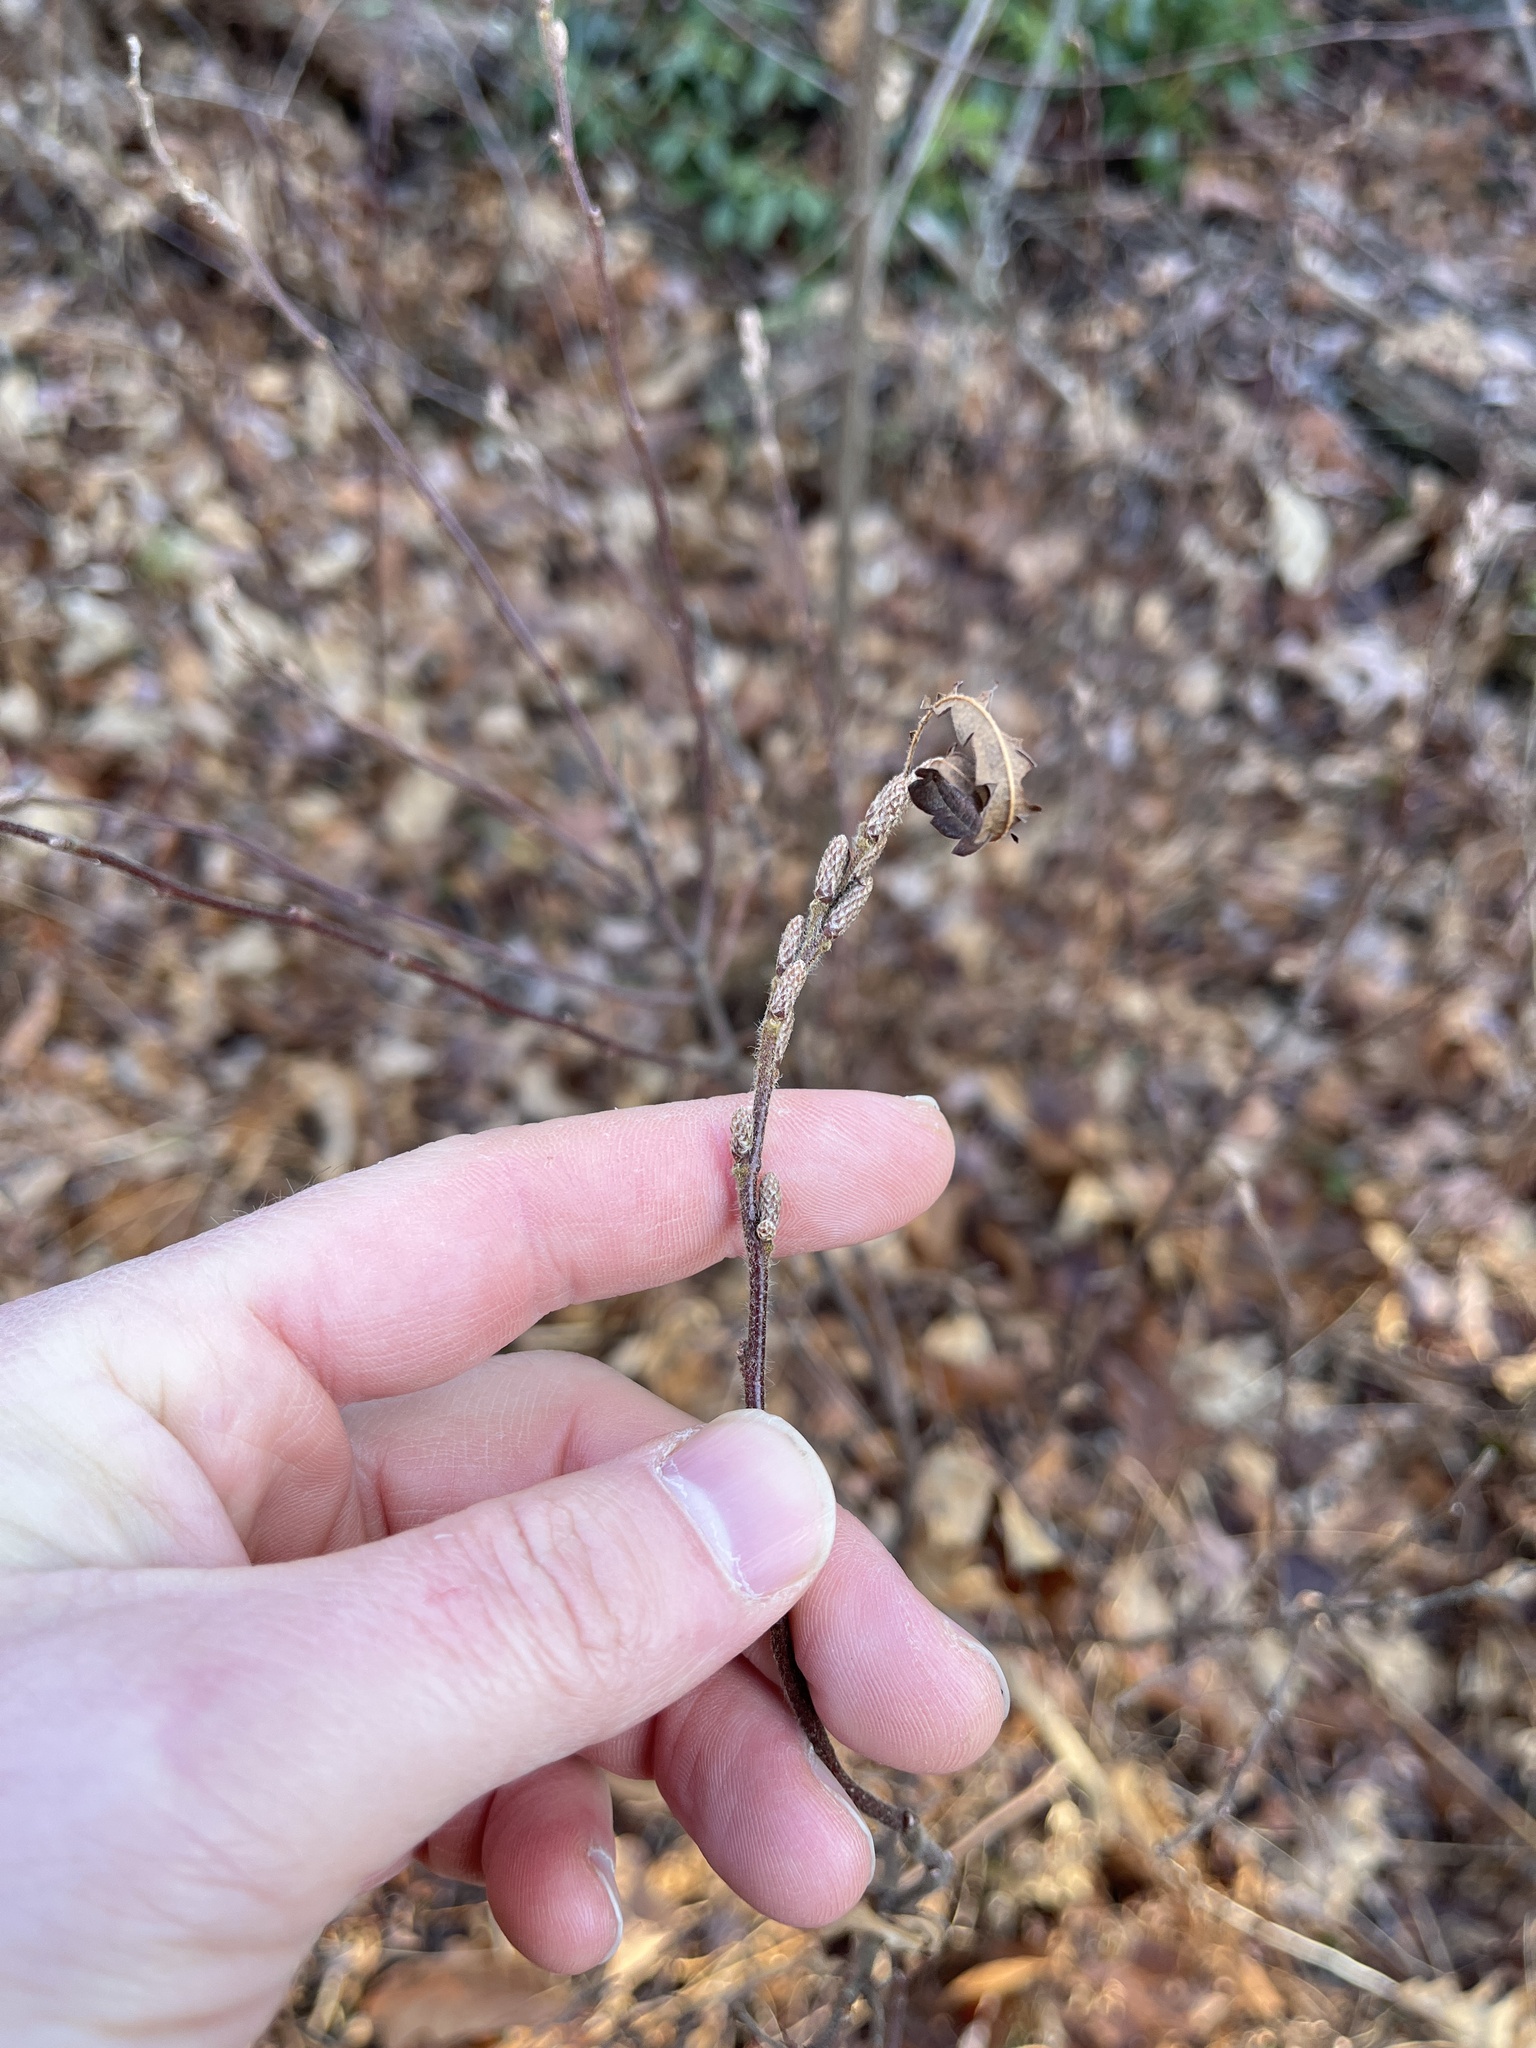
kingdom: Plantae
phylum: Tracheophyta
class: Magnoliopsida
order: Fagales
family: Myricaceae
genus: Comptonia
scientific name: Comptonia peregrina
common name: Sweet-fern
